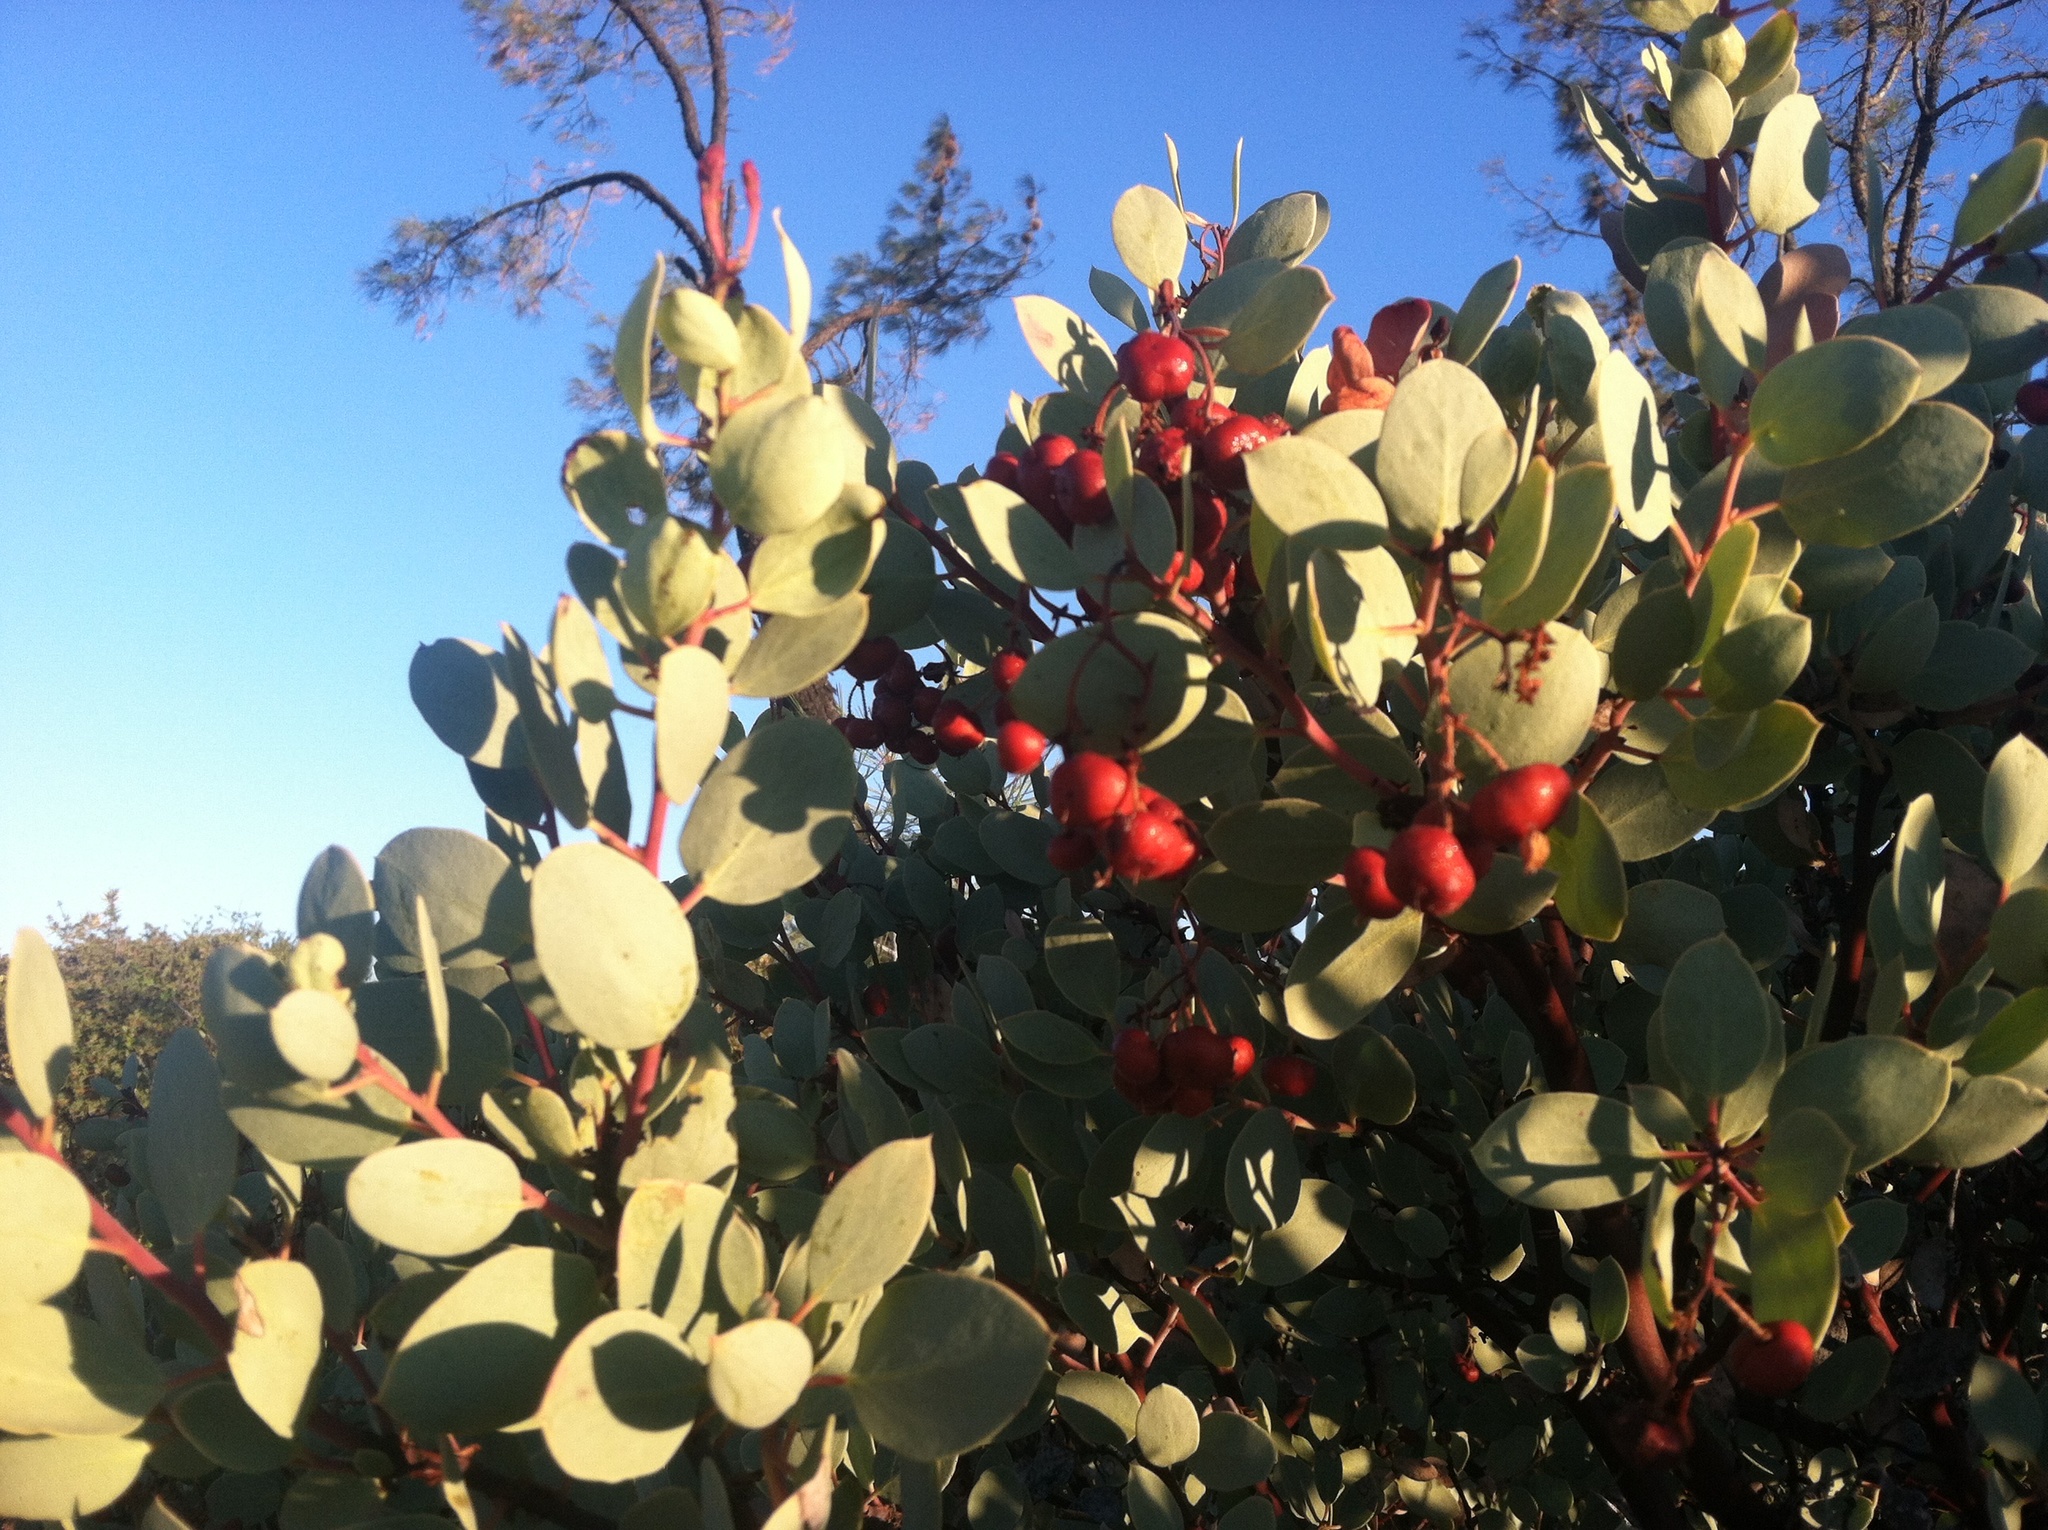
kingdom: Plantae
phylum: Tracheophyta
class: Magnoliopsida
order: Ericales
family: Ericaceae
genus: Arctostaphylos
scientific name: Arctostaphylos viscida
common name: White-leaf manzanita
